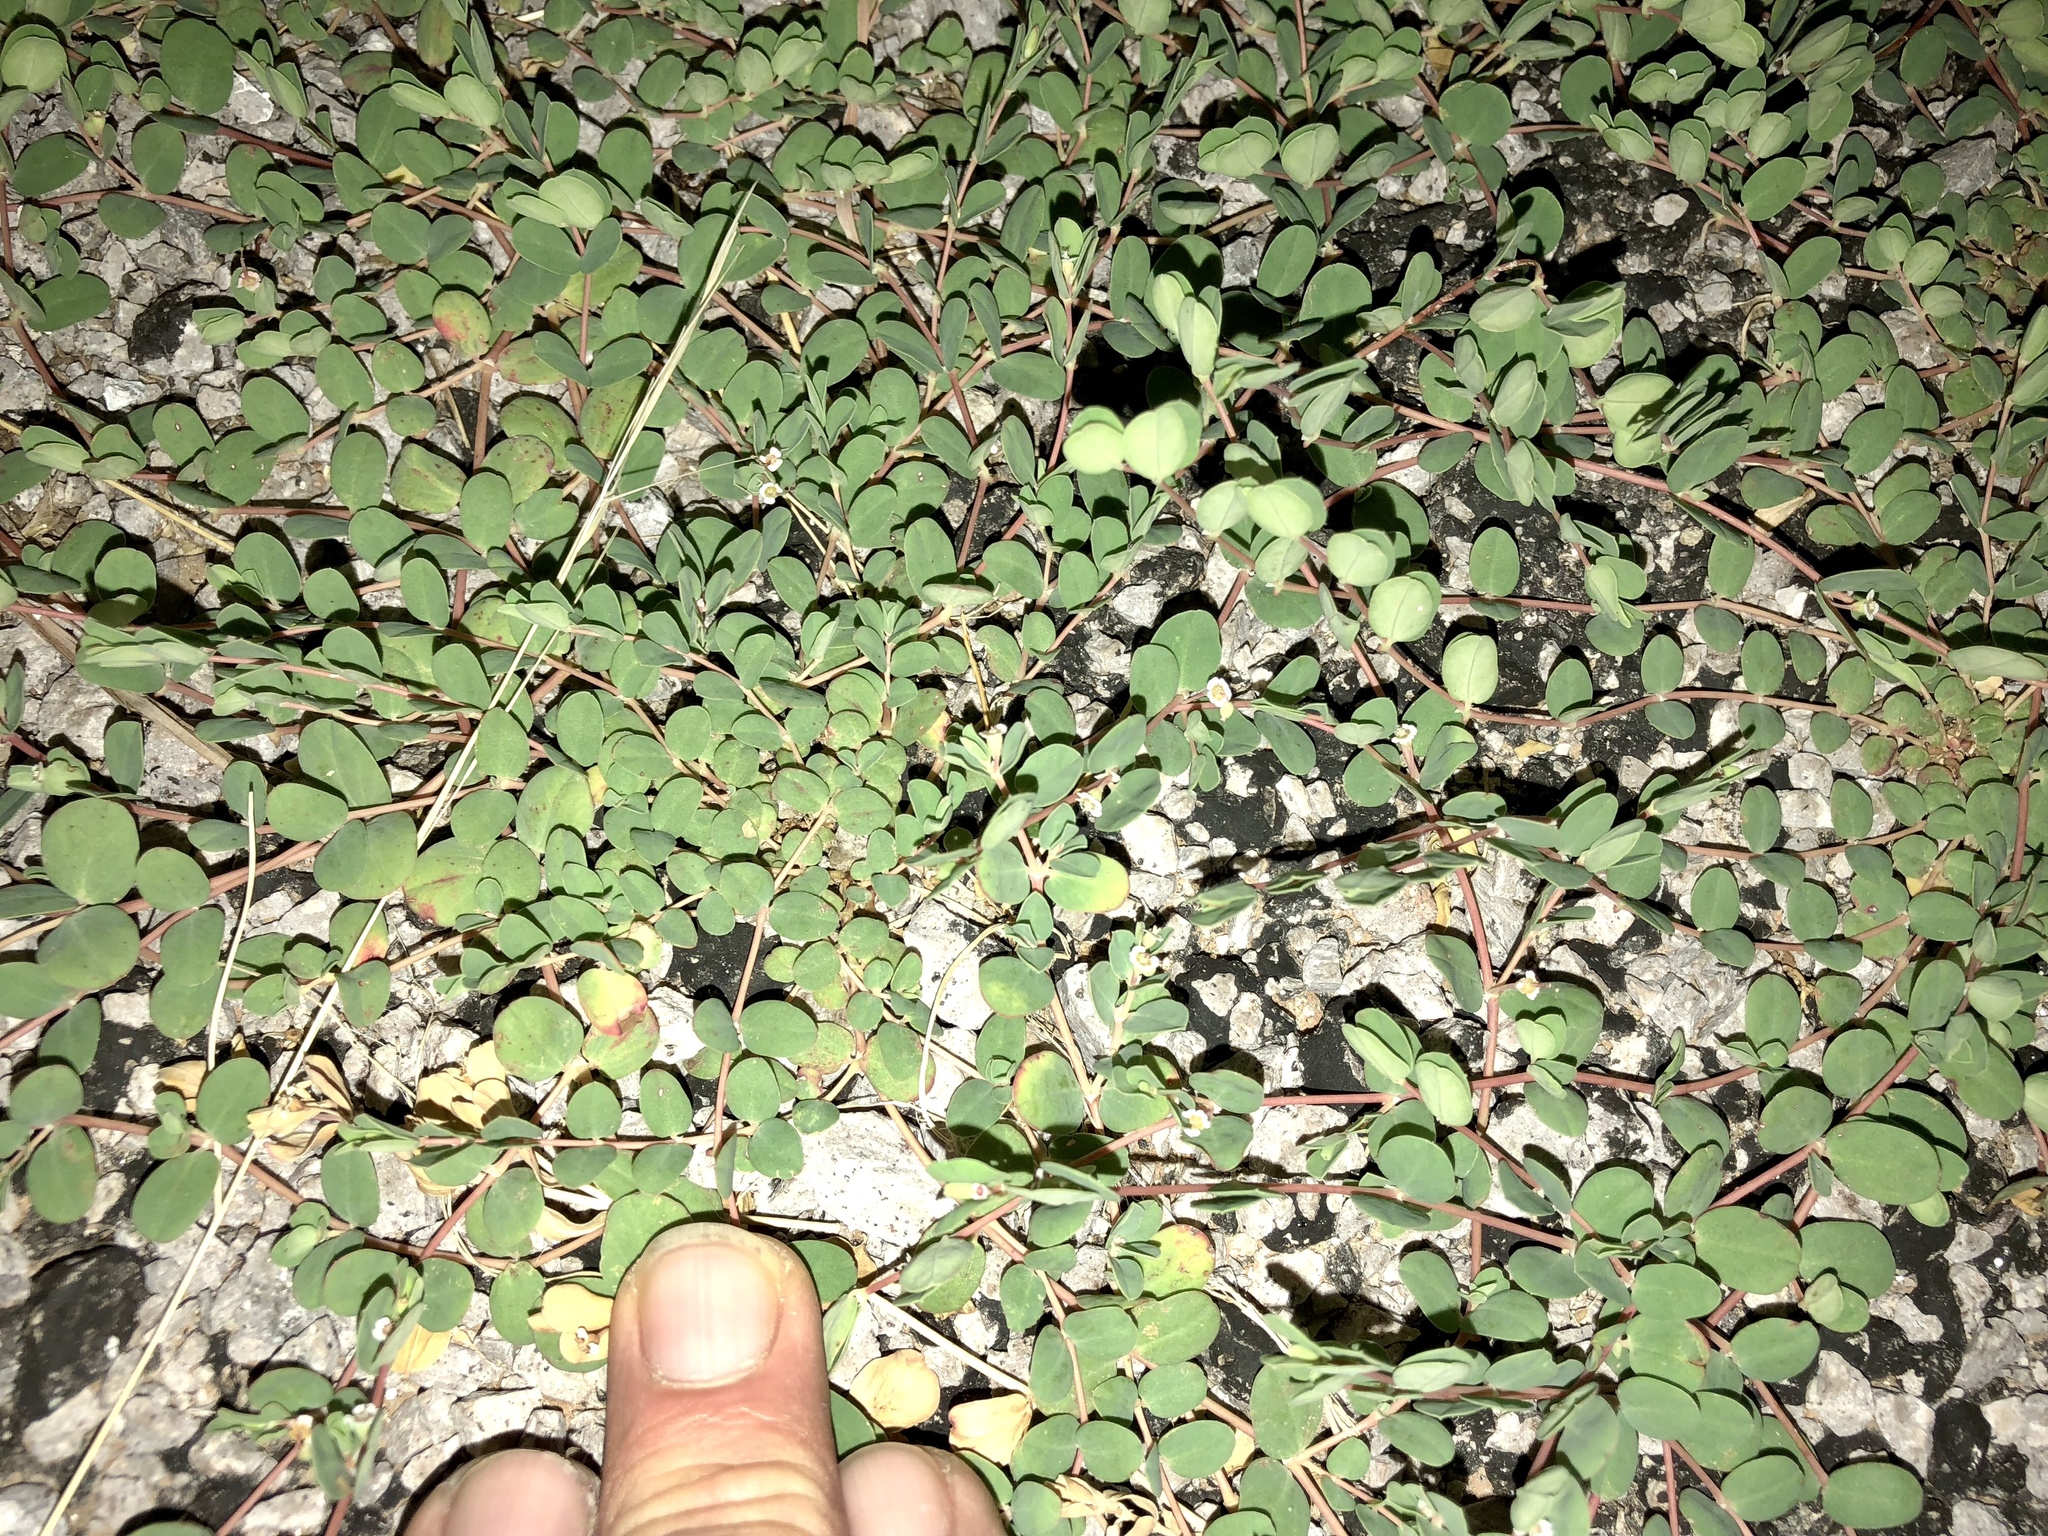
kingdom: Plantae
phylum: Tracheophyta
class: Magnoliopsida
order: Malpighiales
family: Euphorbiaceae
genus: Euphorbia
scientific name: Euphorbia albomarginata
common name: Whitemargin sandmat
